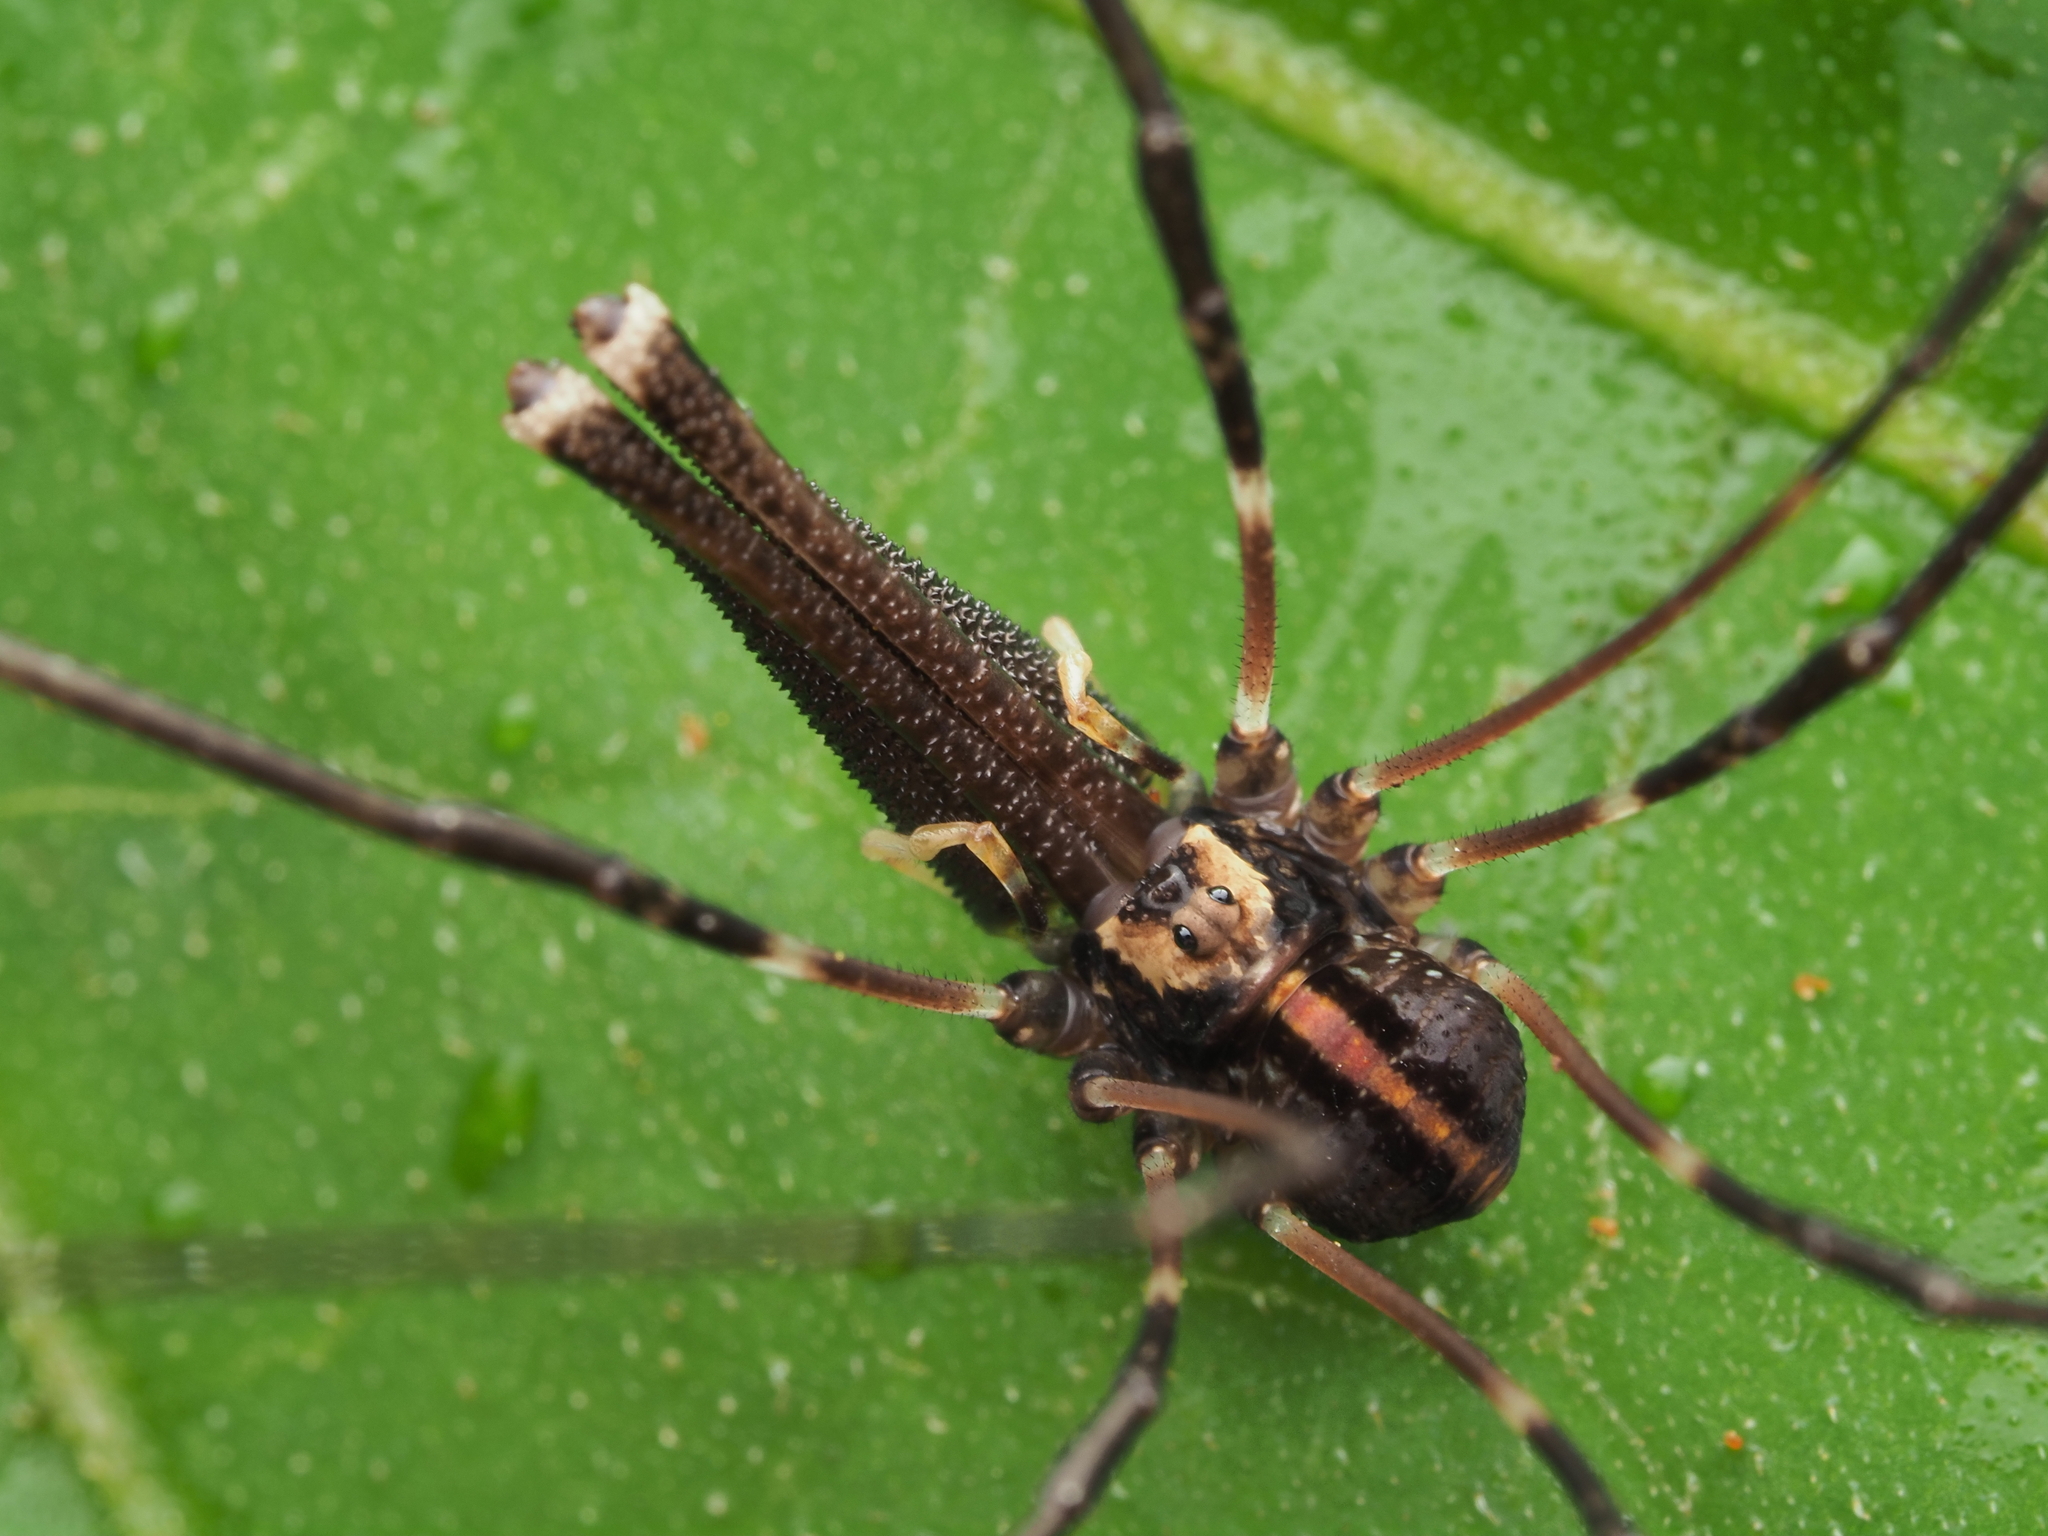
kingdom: Animalia
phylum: Arthropoda
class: Arachnida
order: Opiliones
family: Neopilionidae
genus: Forsteropsalis
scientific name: Forsteropsalis pureora
